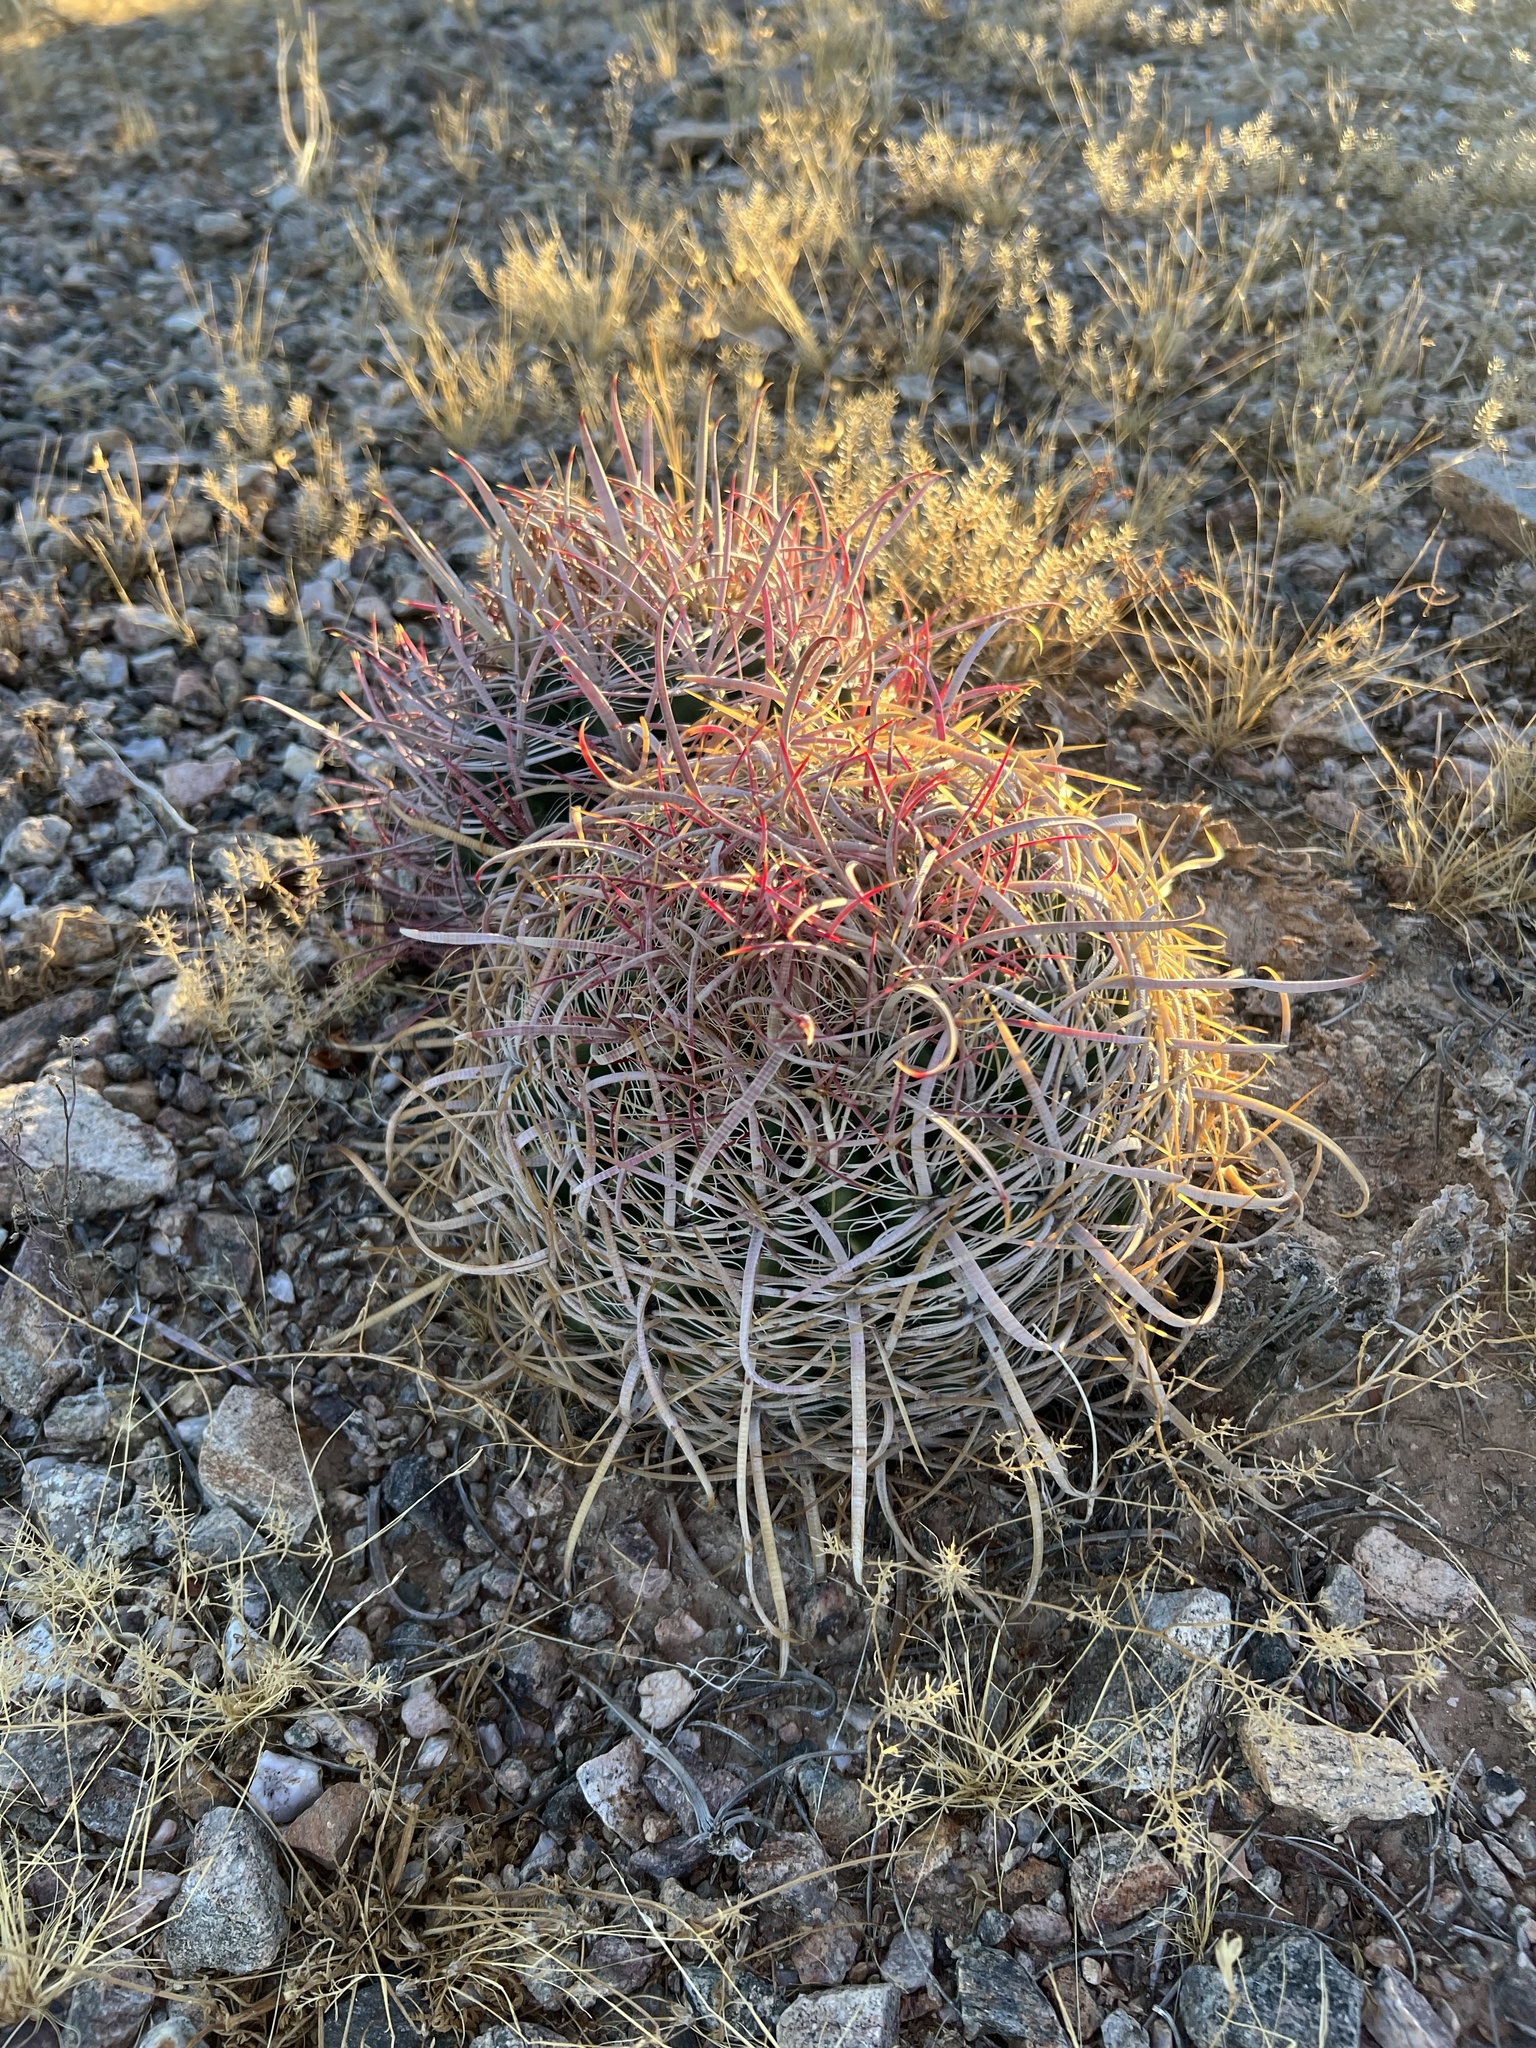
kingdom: Plantae
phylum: Tracheophyta
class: Magnoliopsida
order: Caryophyllales
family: Cactaceae
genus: Ferocactus
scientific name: Ferocactus cylindraceus
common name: California barrel cactus
